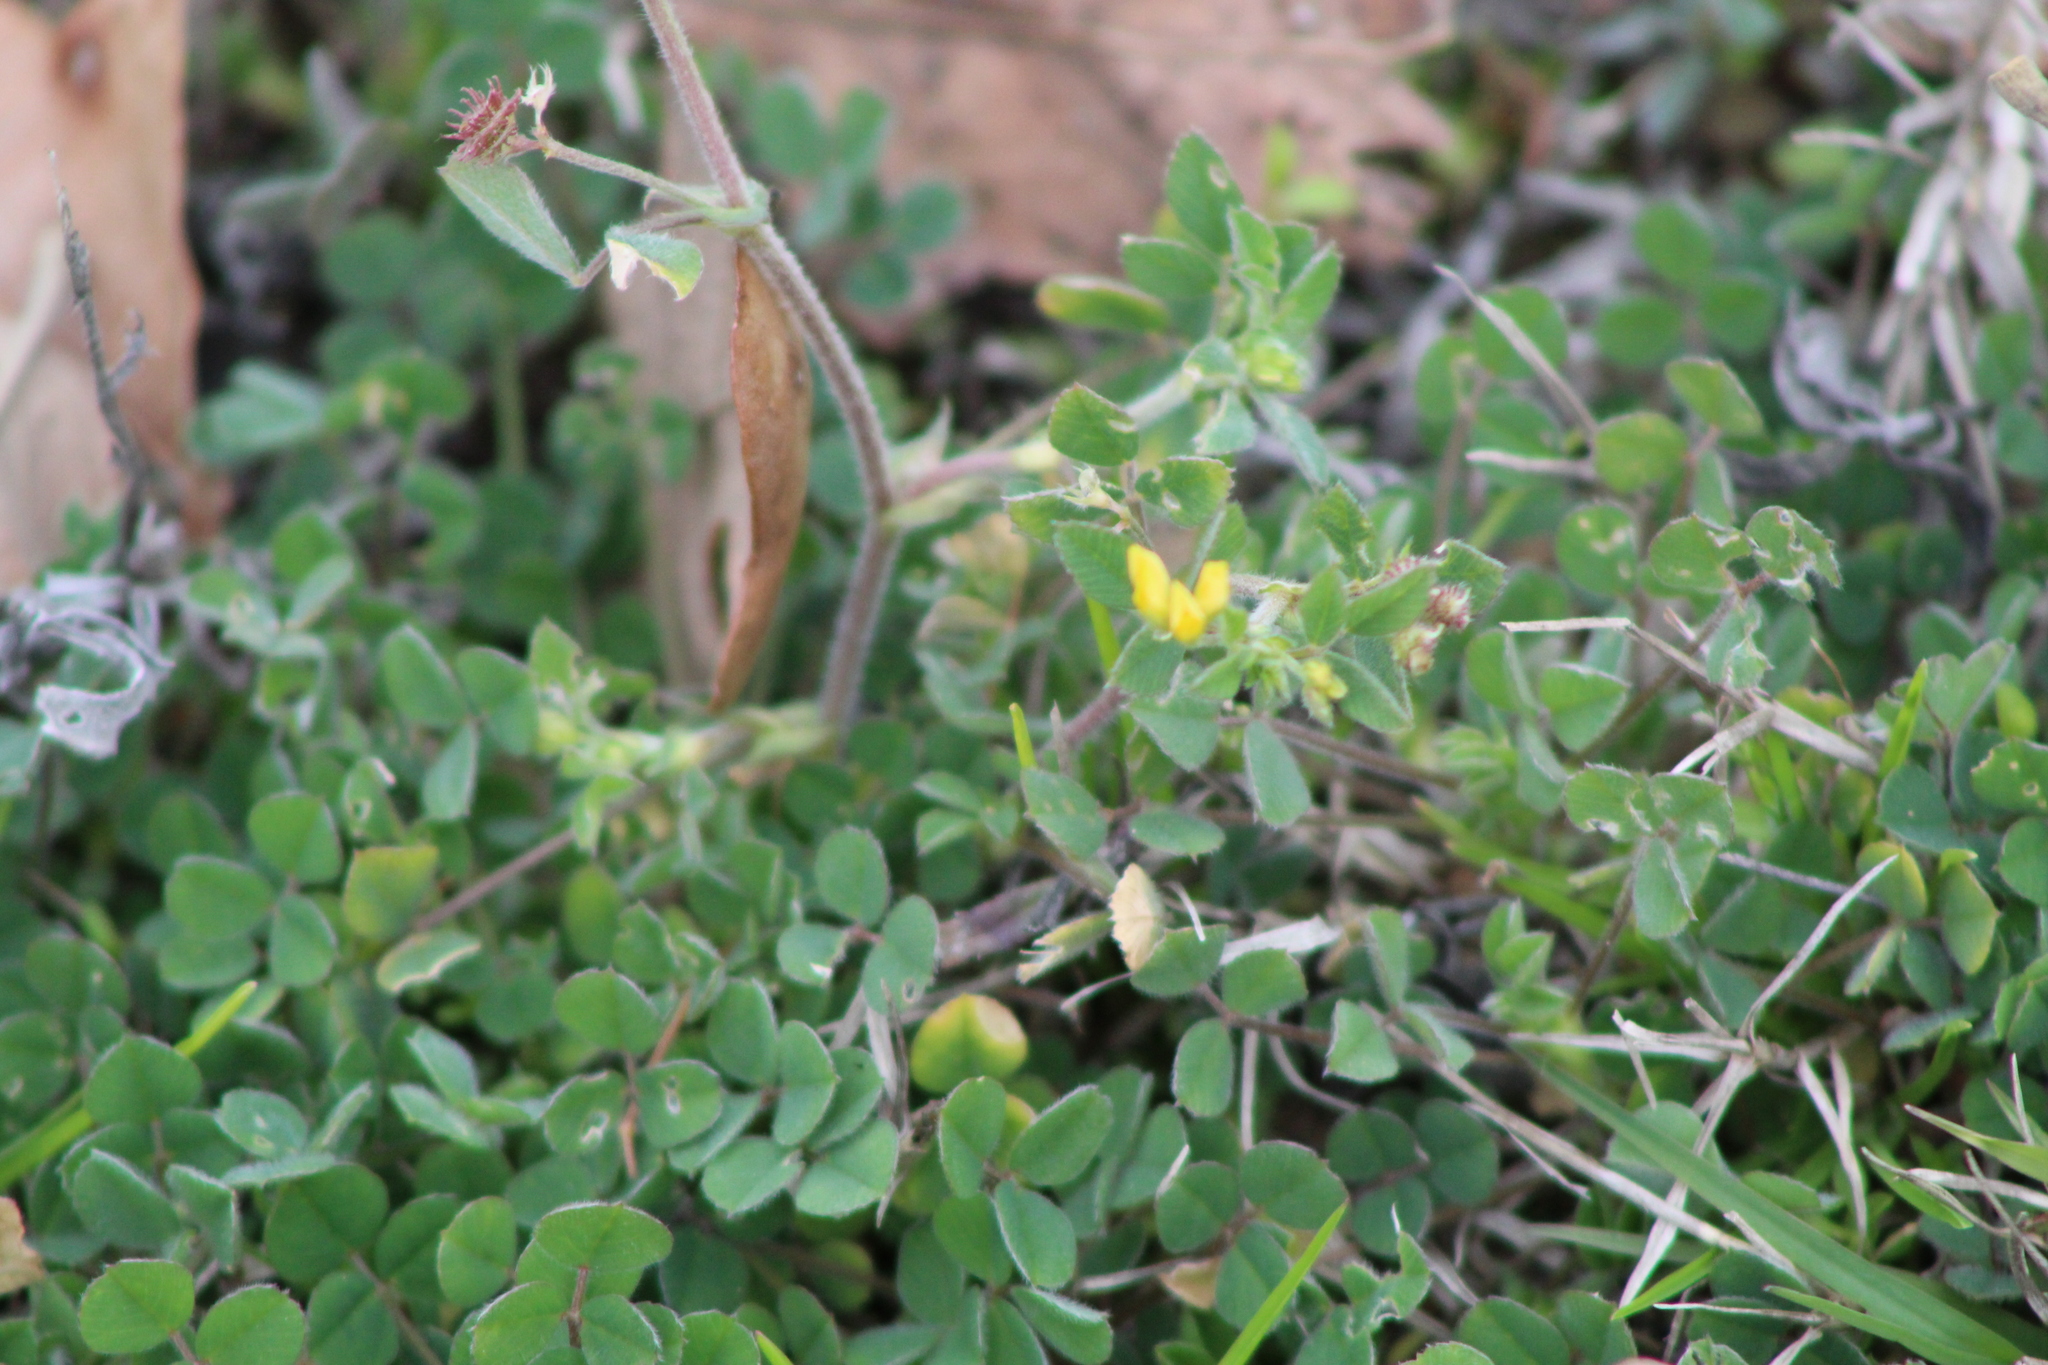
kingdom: Plantae
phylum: Tracheophyta
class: Magnoliopsida
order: Fabales
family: Fabaceae
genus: Medicago
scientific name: Medicago minima
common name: Little bur-clover
